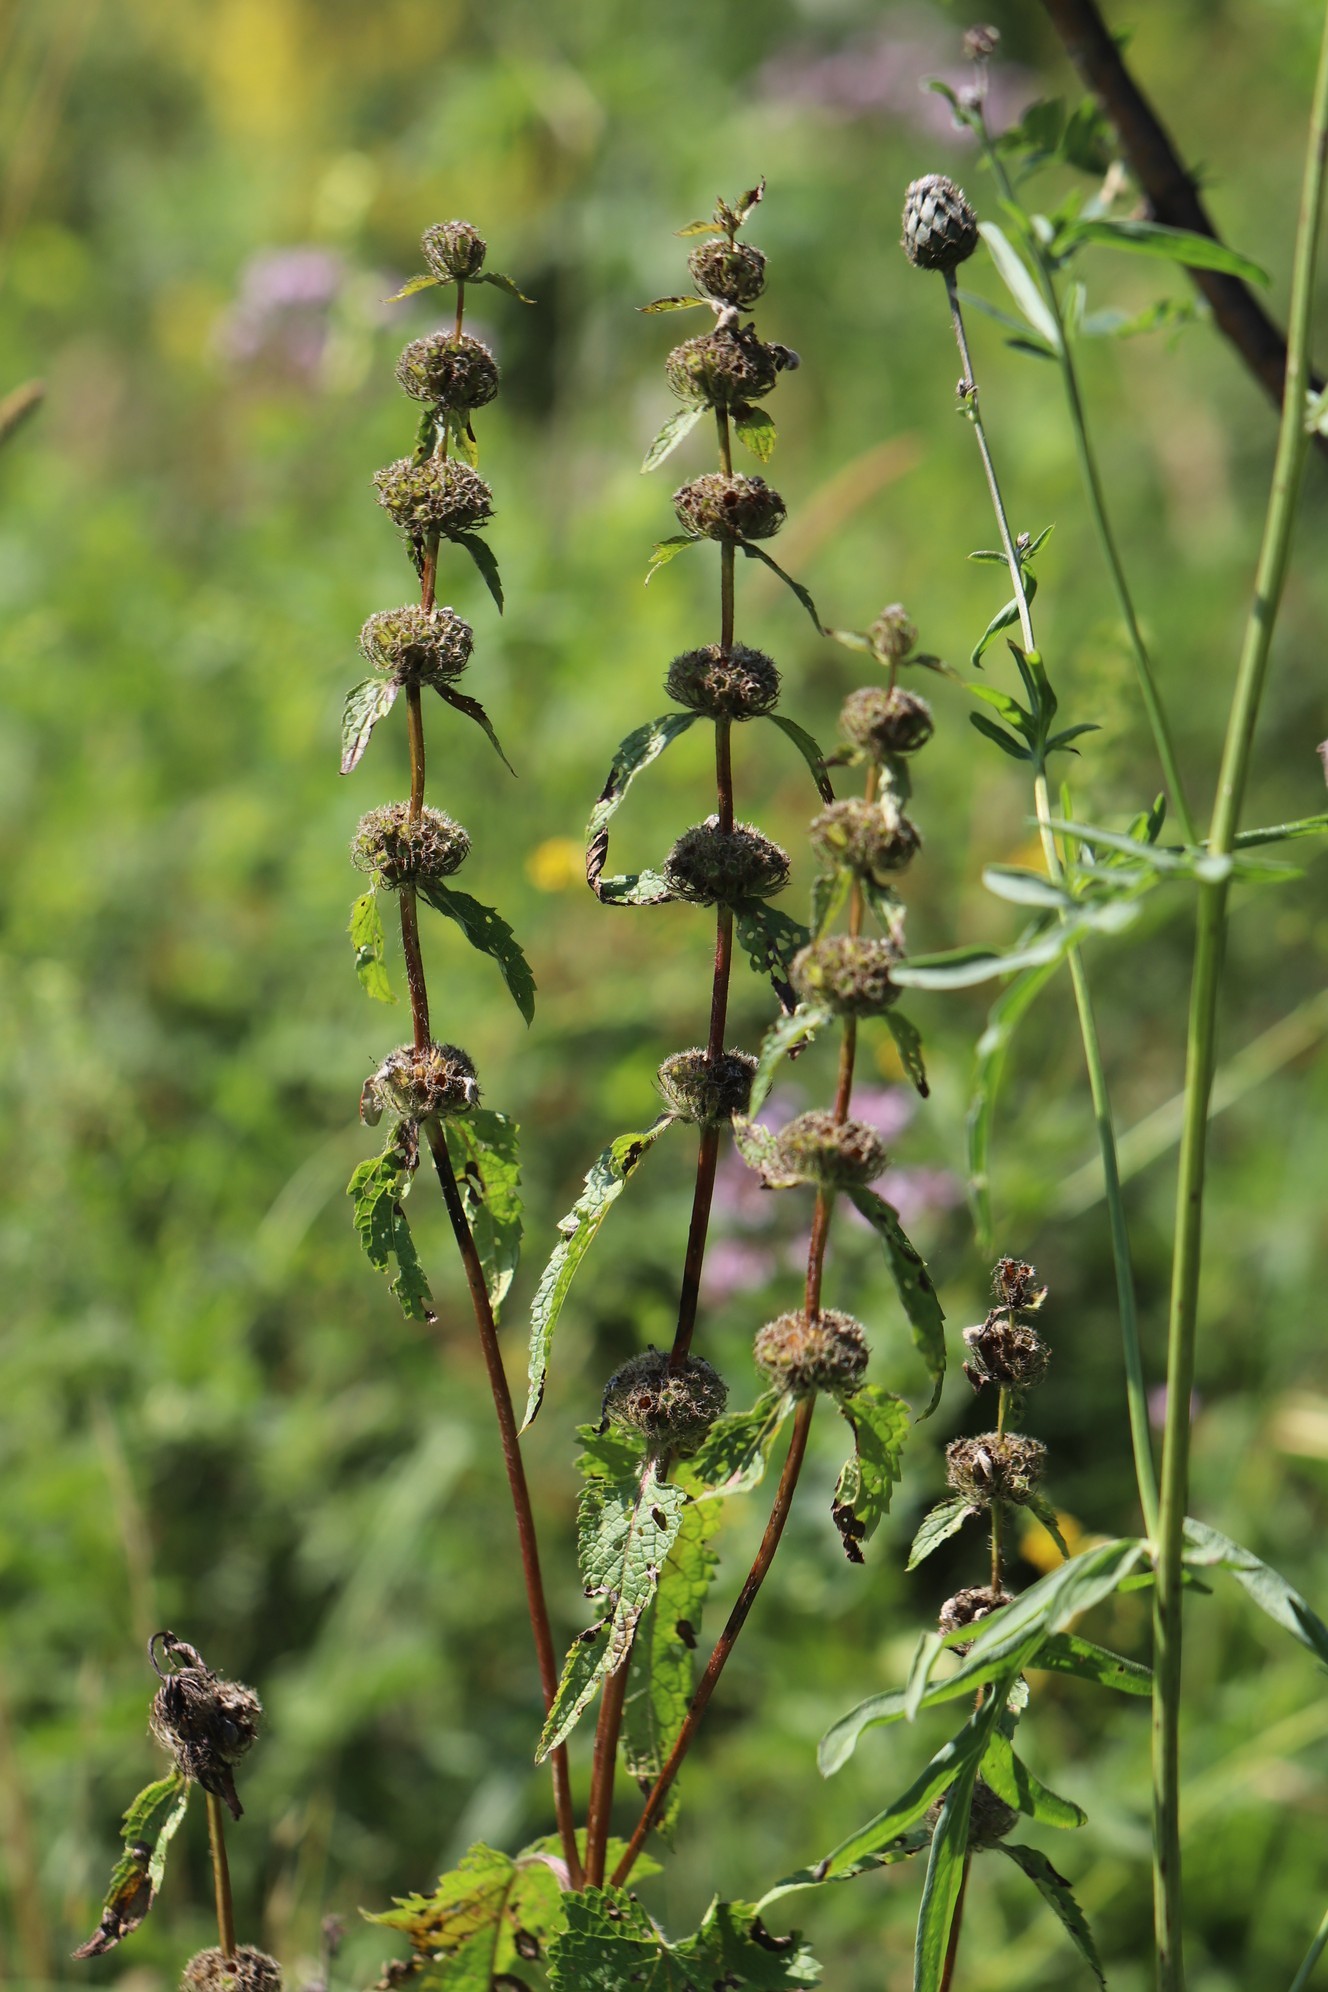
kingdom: Plantae
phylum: Tracheophyta
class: Magnoliopsida
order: Lamiales
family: Lamiaceae
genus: Phlomoides
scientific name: Phlomoides tuberosa
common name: Tuberous jerusalem sage
